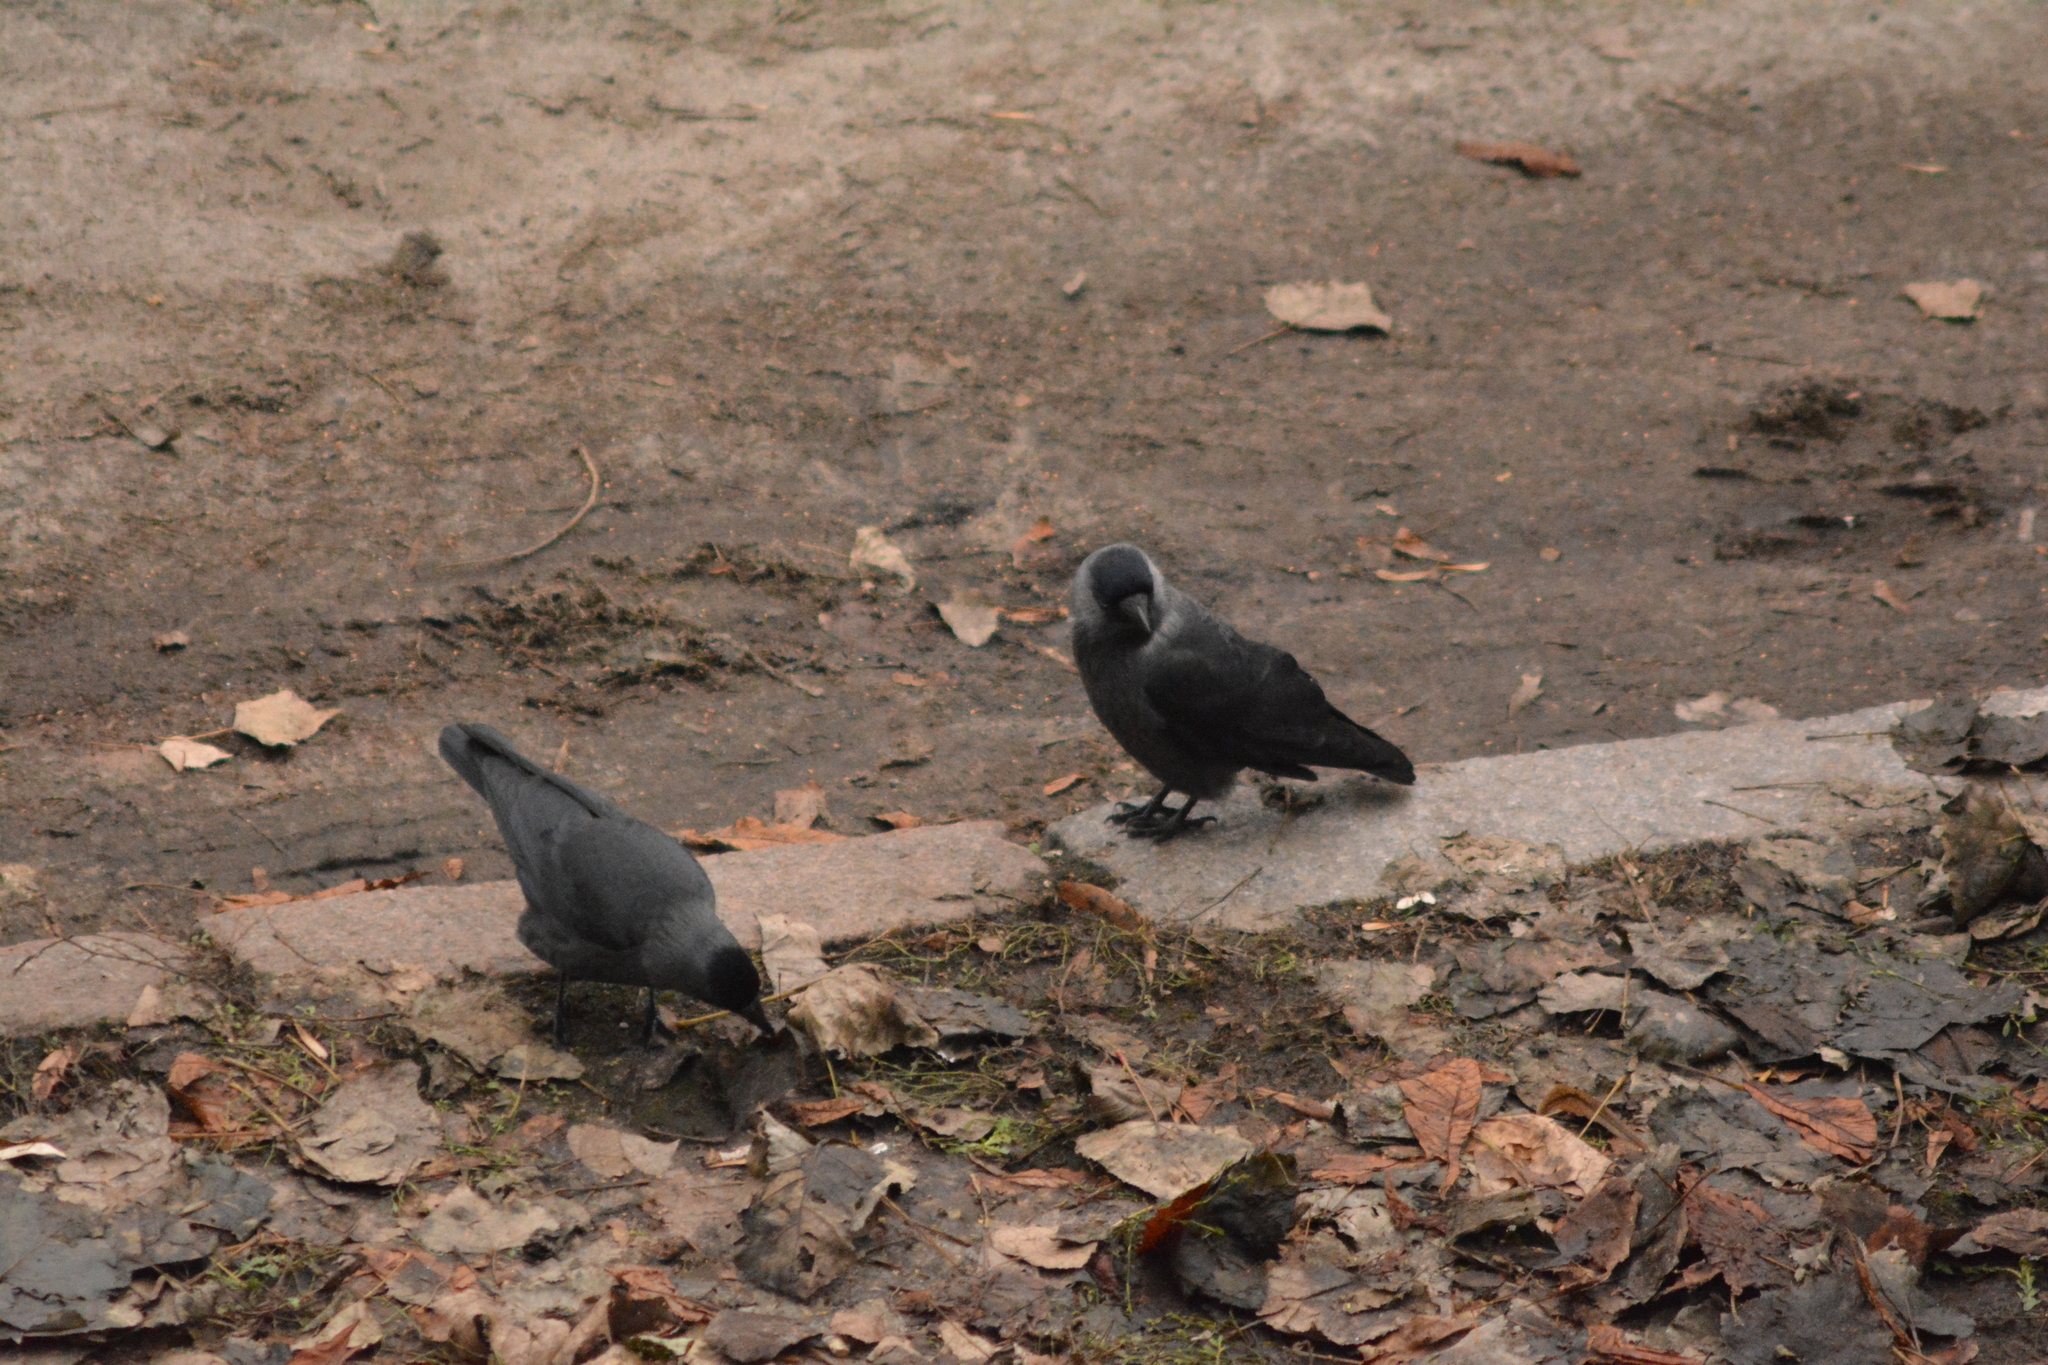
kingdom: Animalia
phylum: Chordata
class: Aves
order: Passeriformes
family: Corvidae
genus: Coloeus
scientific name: Coloeus monedula
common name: Western jackdaw
